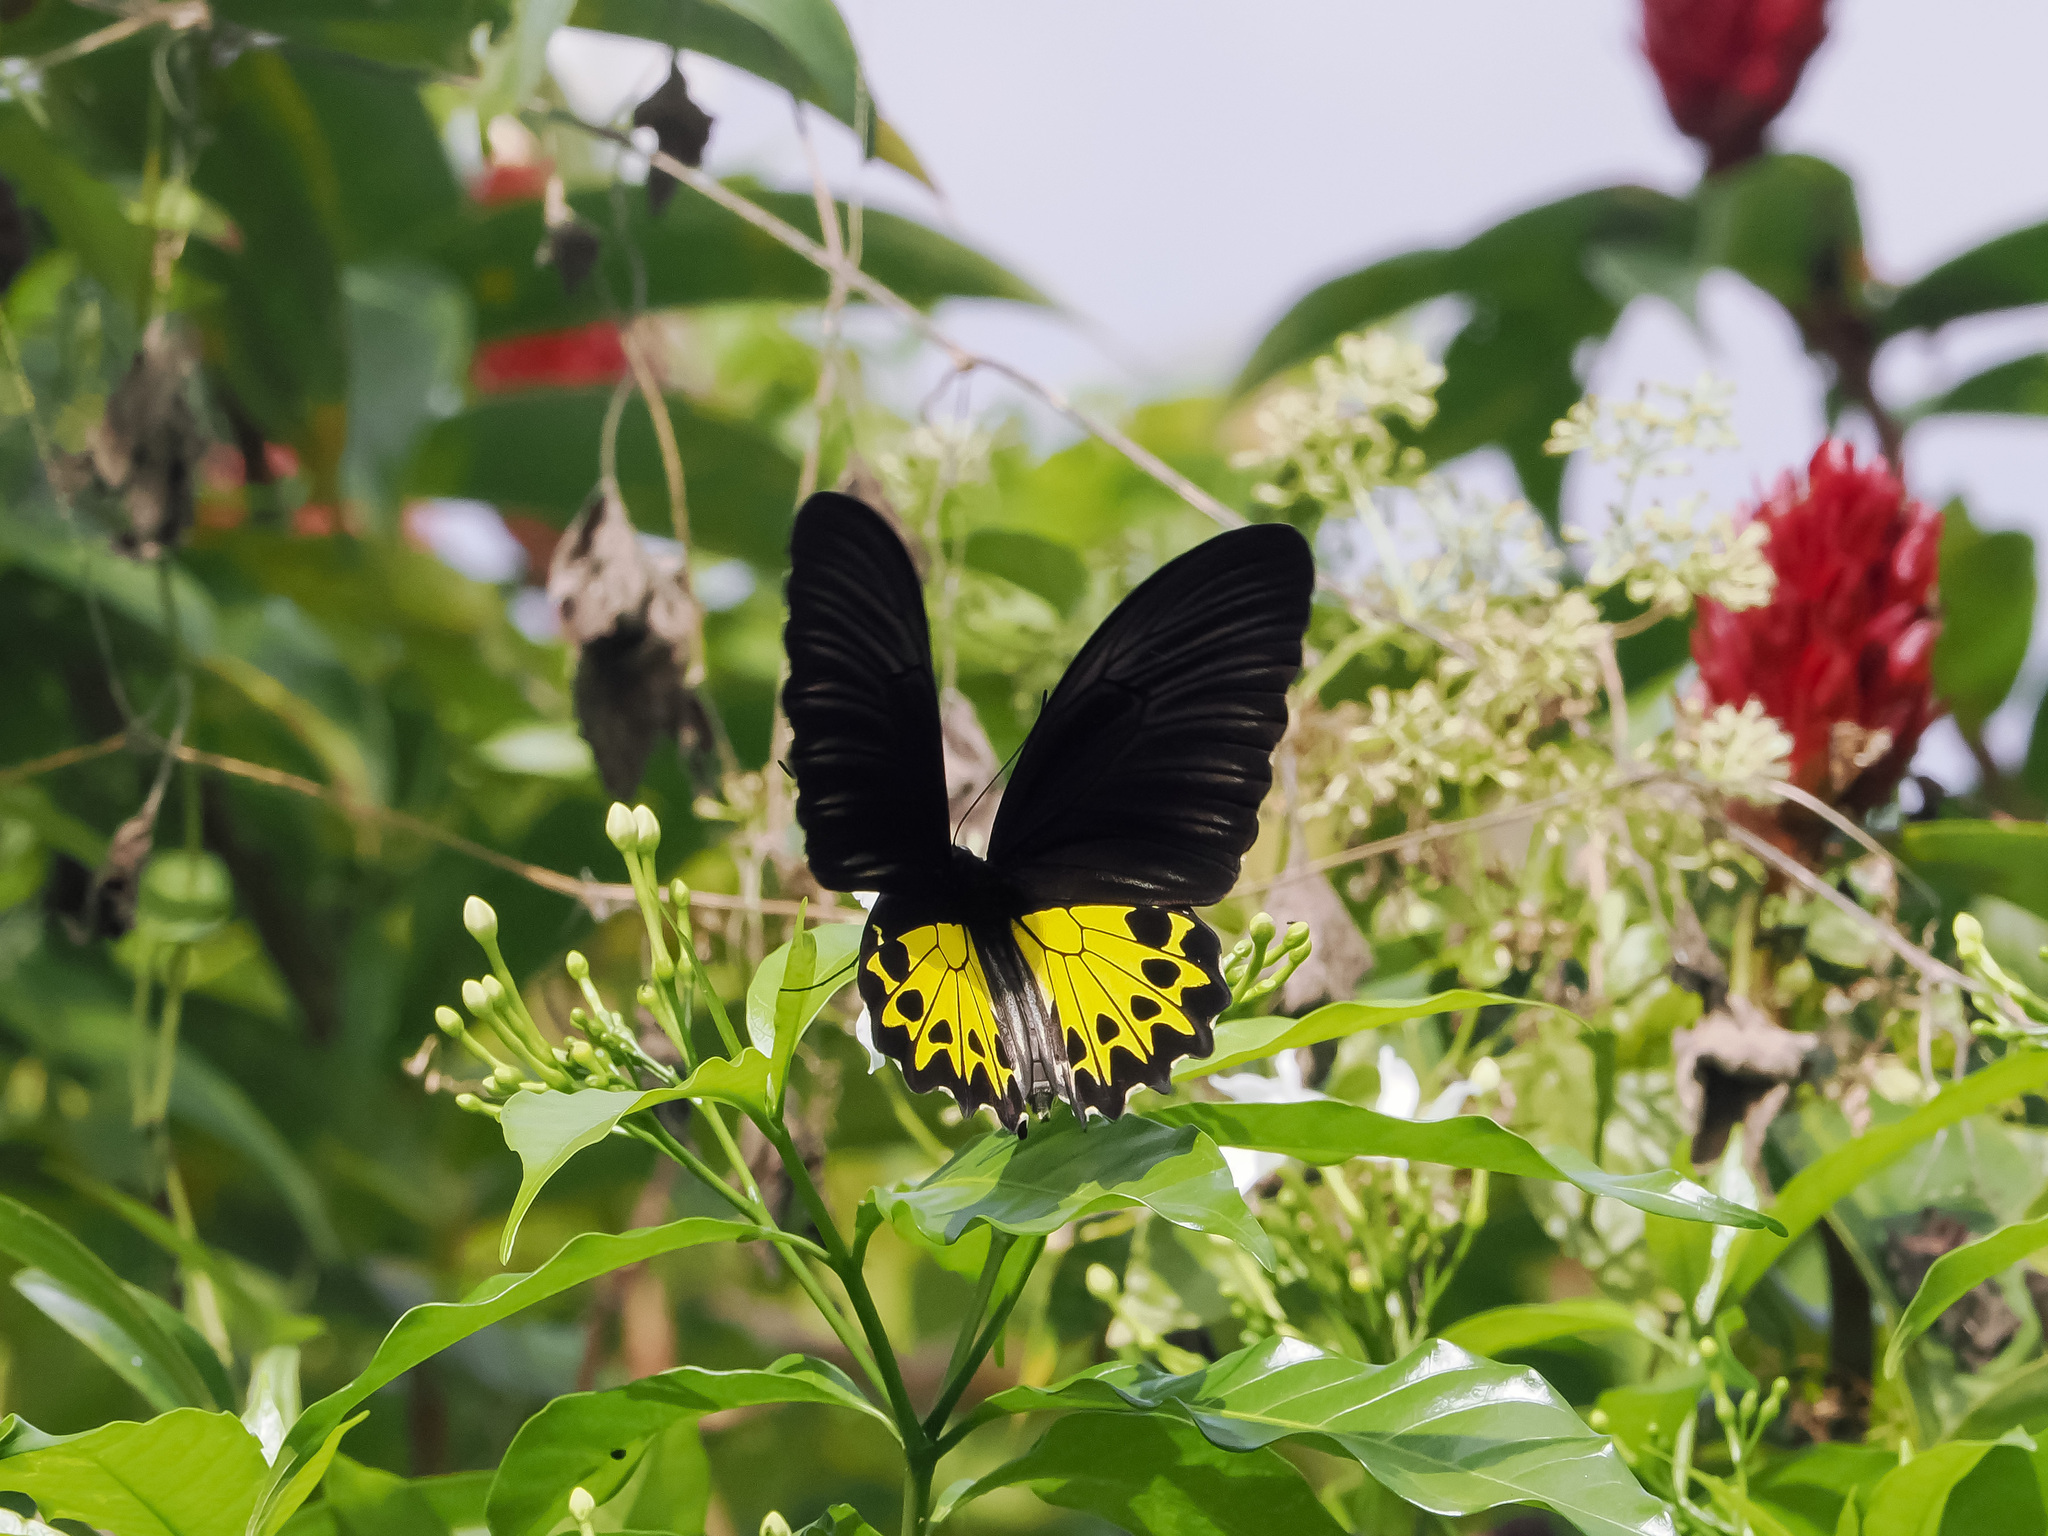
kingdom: Animalia
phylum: Arthropoda
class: Insecta
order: Lepidoptera
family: Papilionidae
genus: Troides
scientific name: Troides helena
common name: Common birdwing
